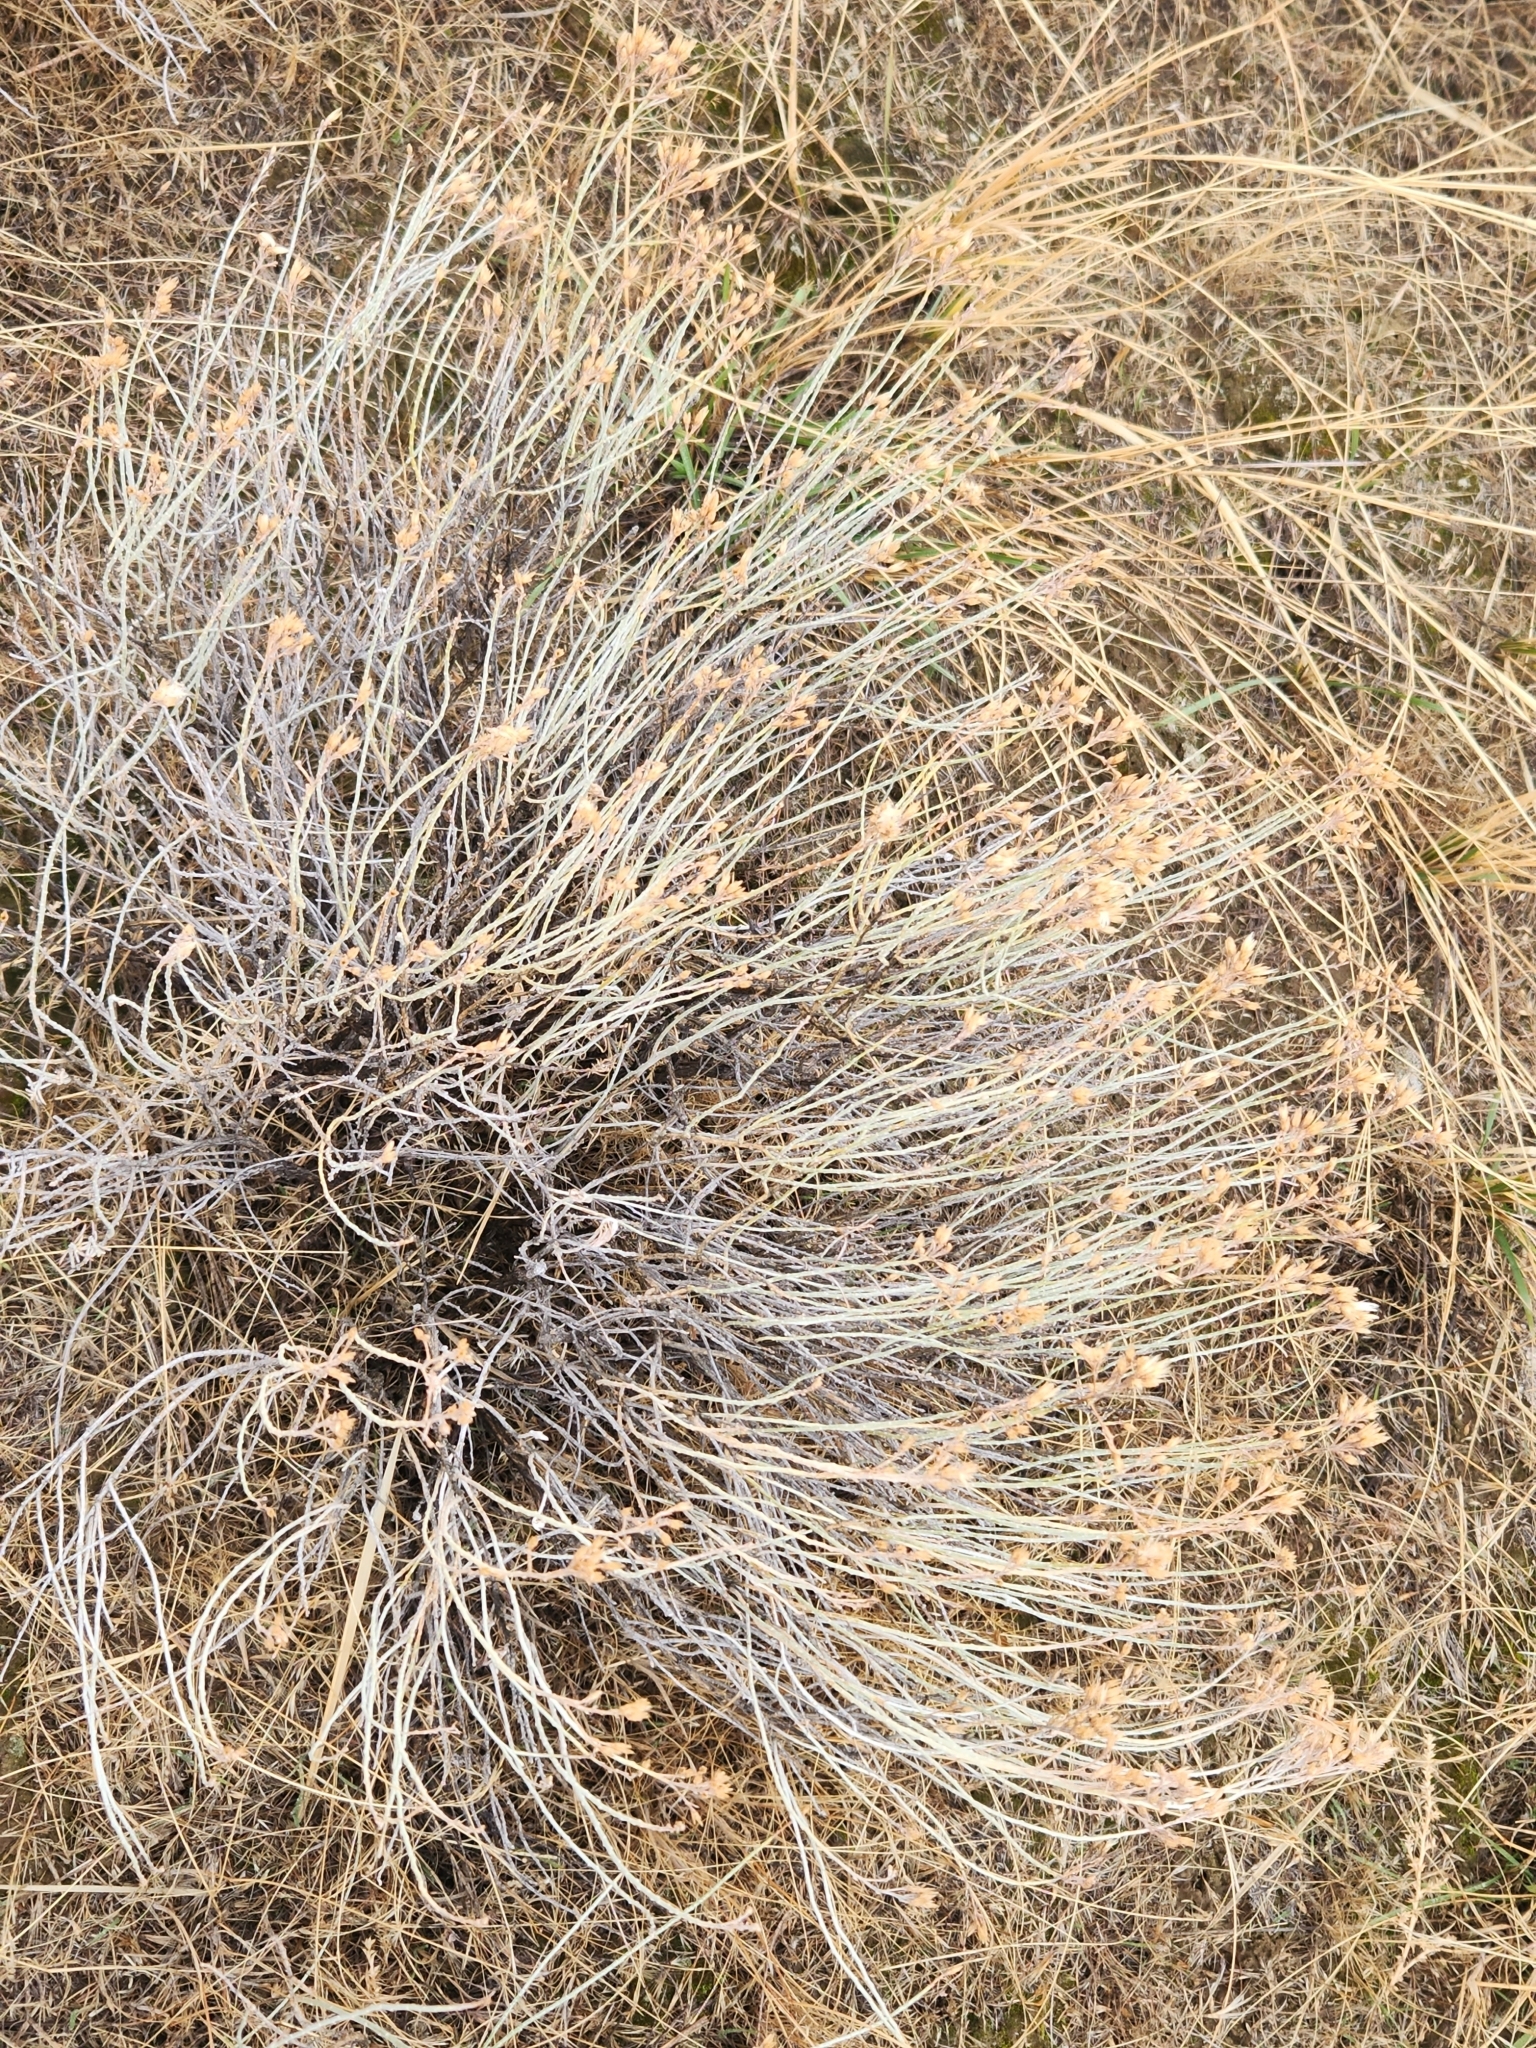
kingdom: Plantae
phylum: Tracheophyta
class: Magnoliopsida
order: Asterales
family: Asteraceae
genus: Ericameria
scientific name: Ericameria nauseosa
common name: Rubber rabbitbrush
